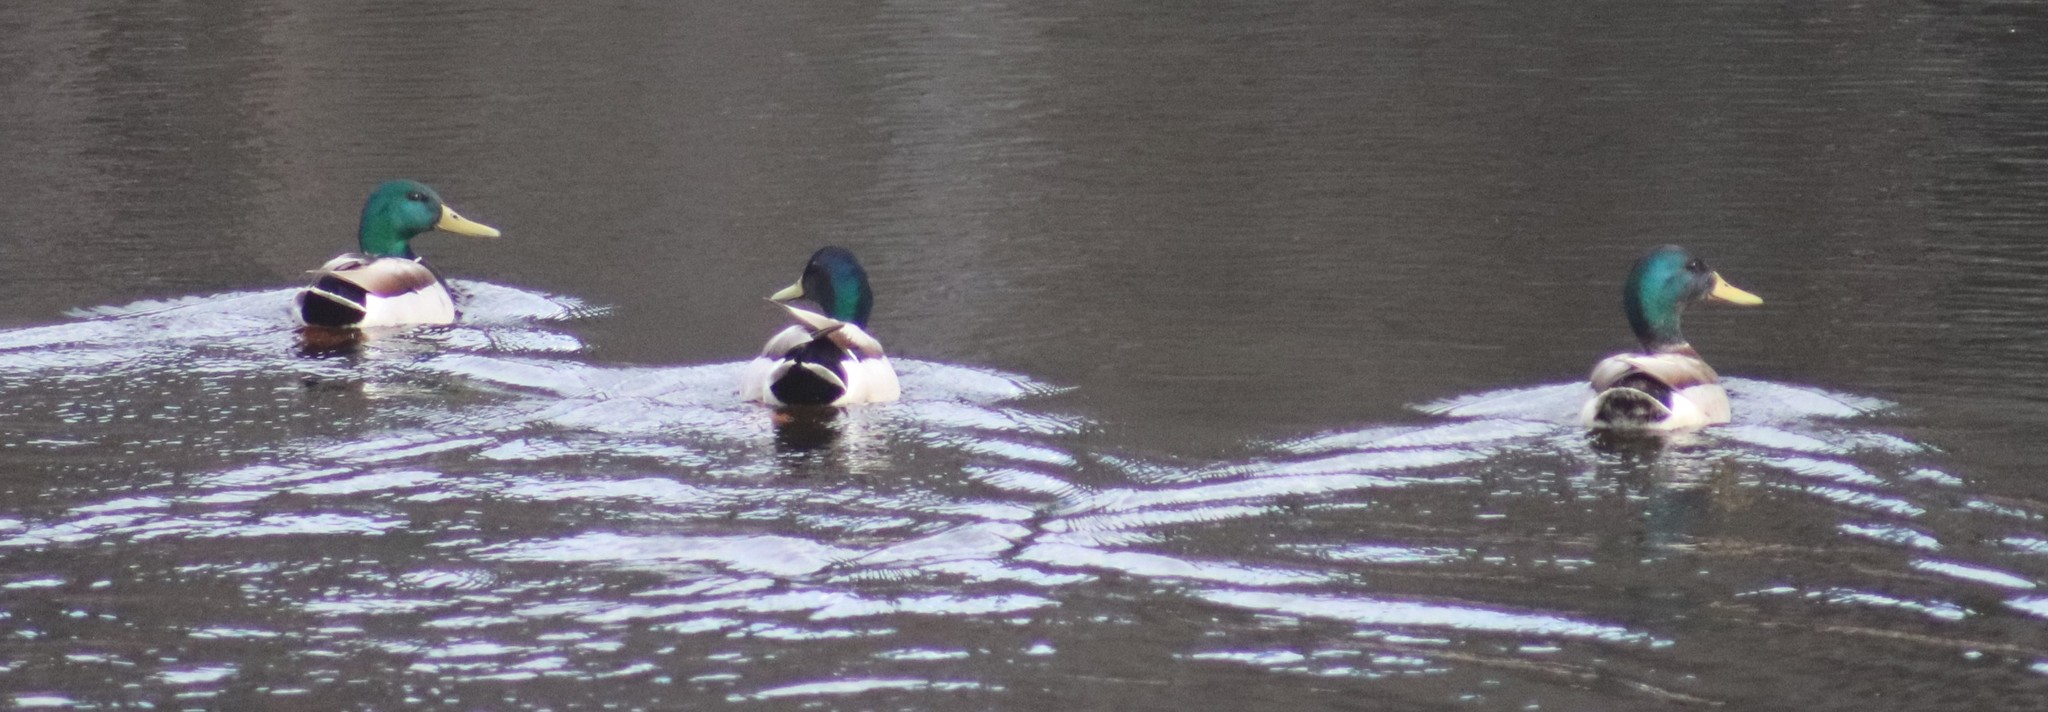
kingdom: Animalia
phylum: Chordata
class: Aves
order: Anseriformes
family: Anatidae
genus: Anas
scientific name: Anas platyrhynchos
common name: Mallard
